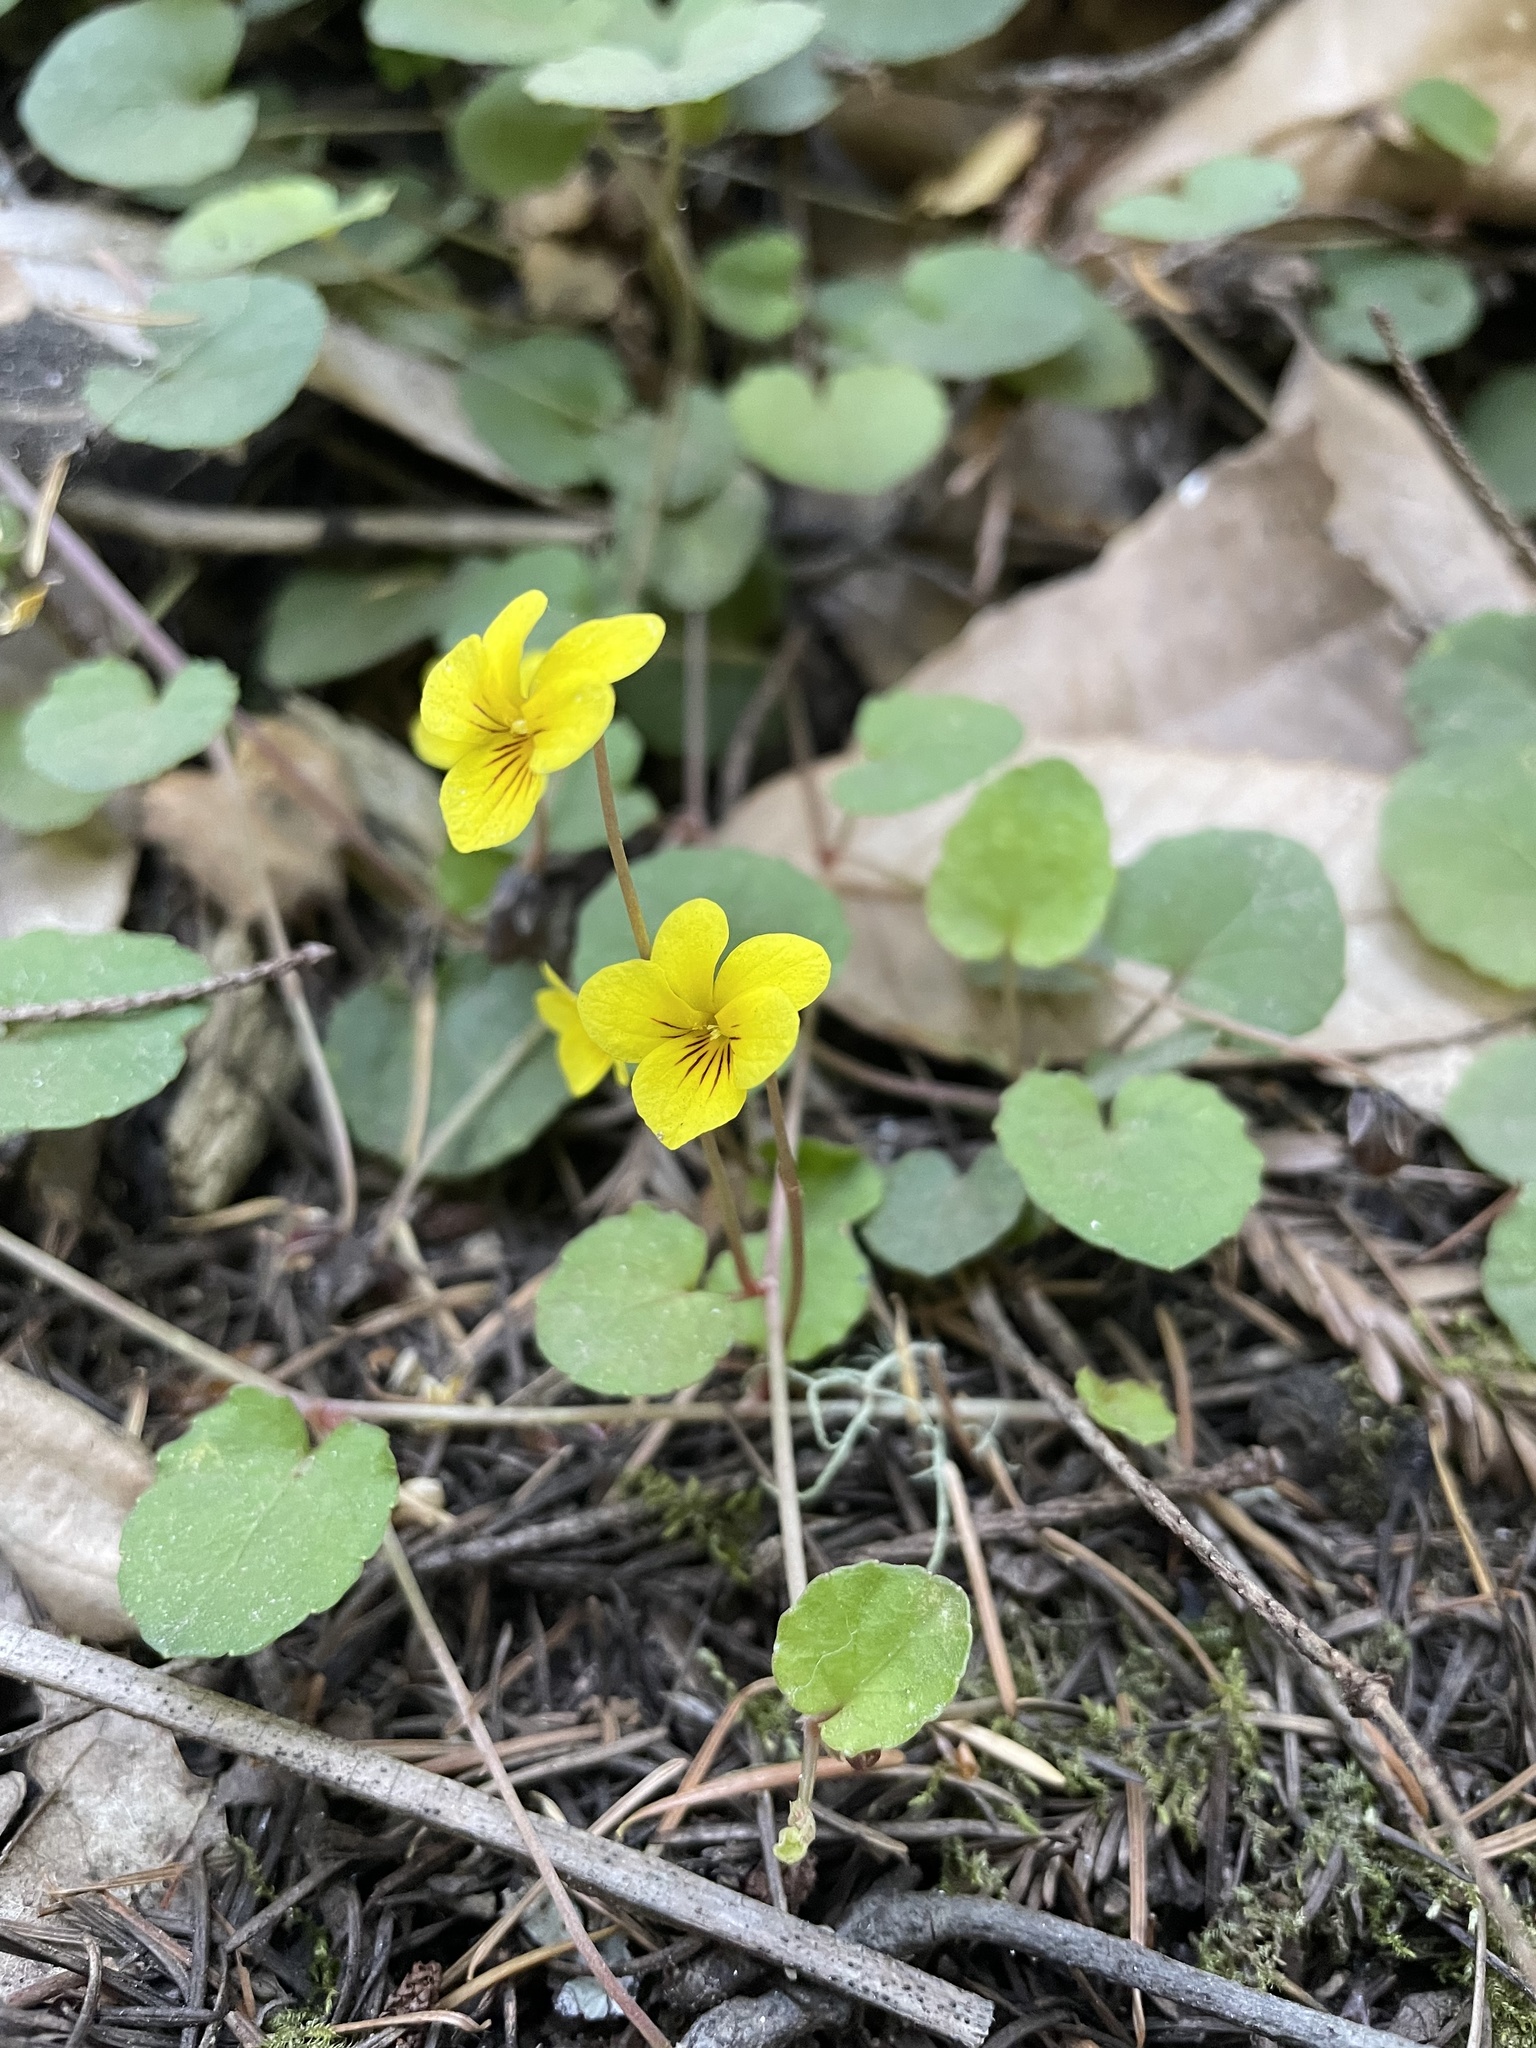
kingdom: Plantae
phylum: Tracheophyta
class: Magnoliopsida
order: Malpighiales
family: Violaceae
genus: Viola
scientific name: Viola sempervirens
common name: Evergreen violet
